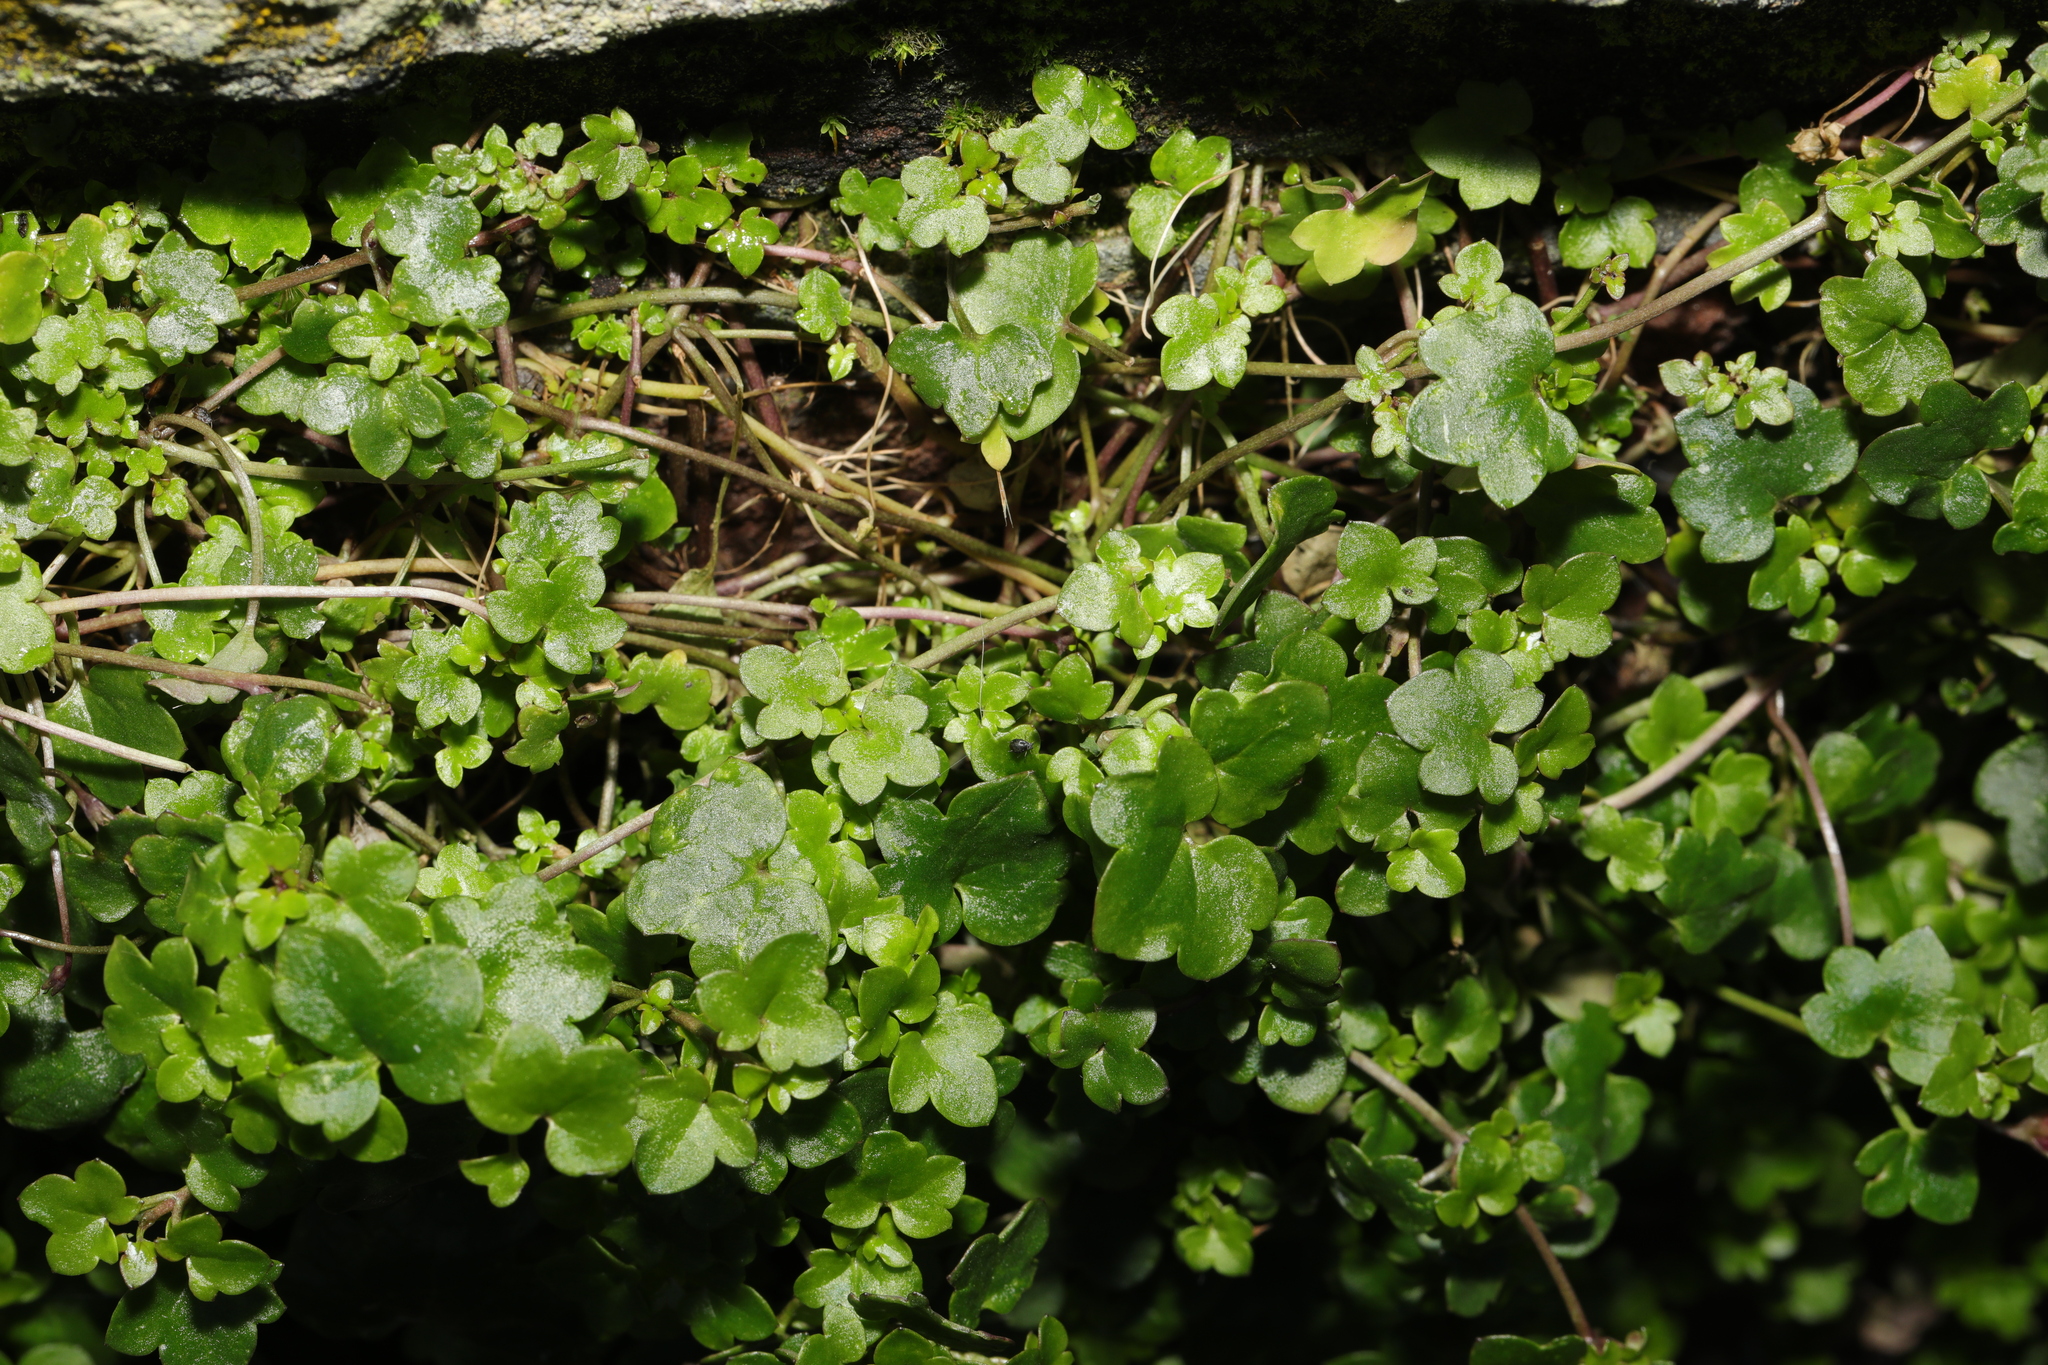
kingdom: Plantae
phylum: Tracheophyta
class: Magnoliopsida
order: Lamiales
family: Plantaginaceae
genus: Cymbalaria
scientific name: Cymbalaria muralis
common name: Ivy-leaved toadflax
